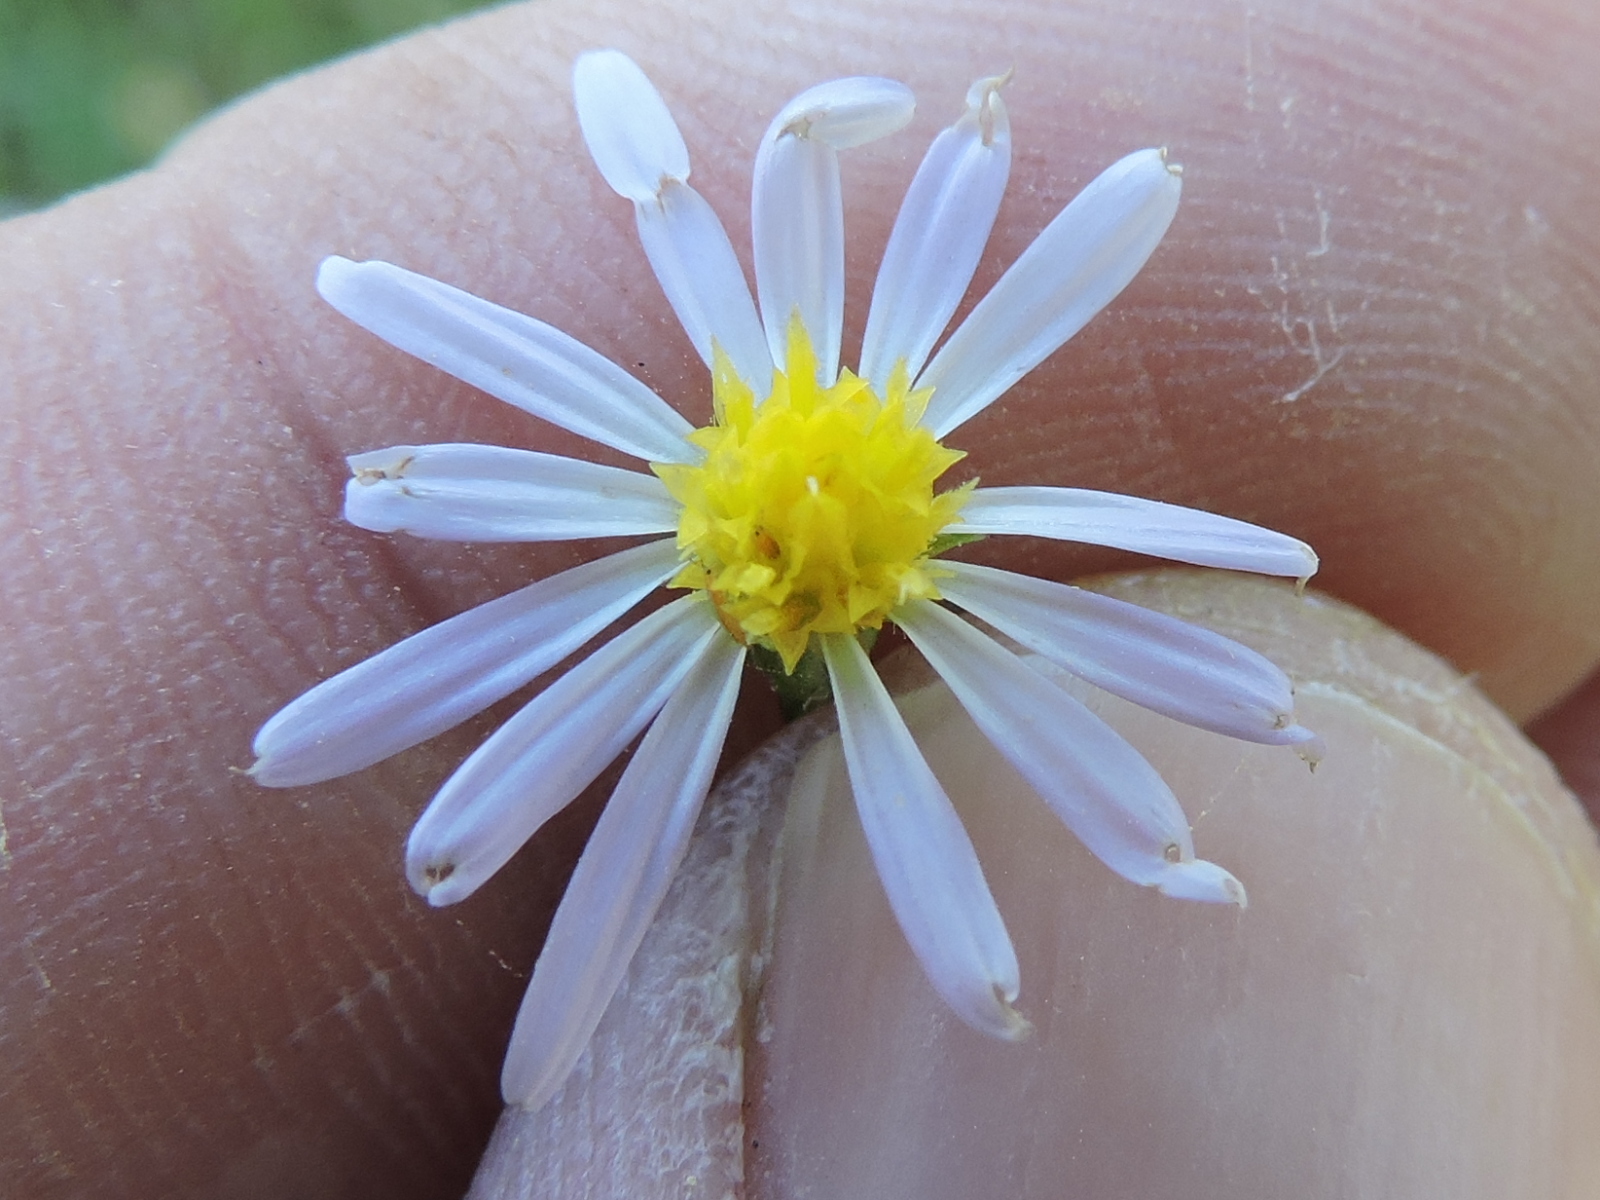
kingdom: Plantae
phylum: Tracheophyta
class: Magnoliopsida
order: Asterales
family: Asteraceae
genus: Symphyotrichum
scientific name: Symphyotrichum divaricatum
